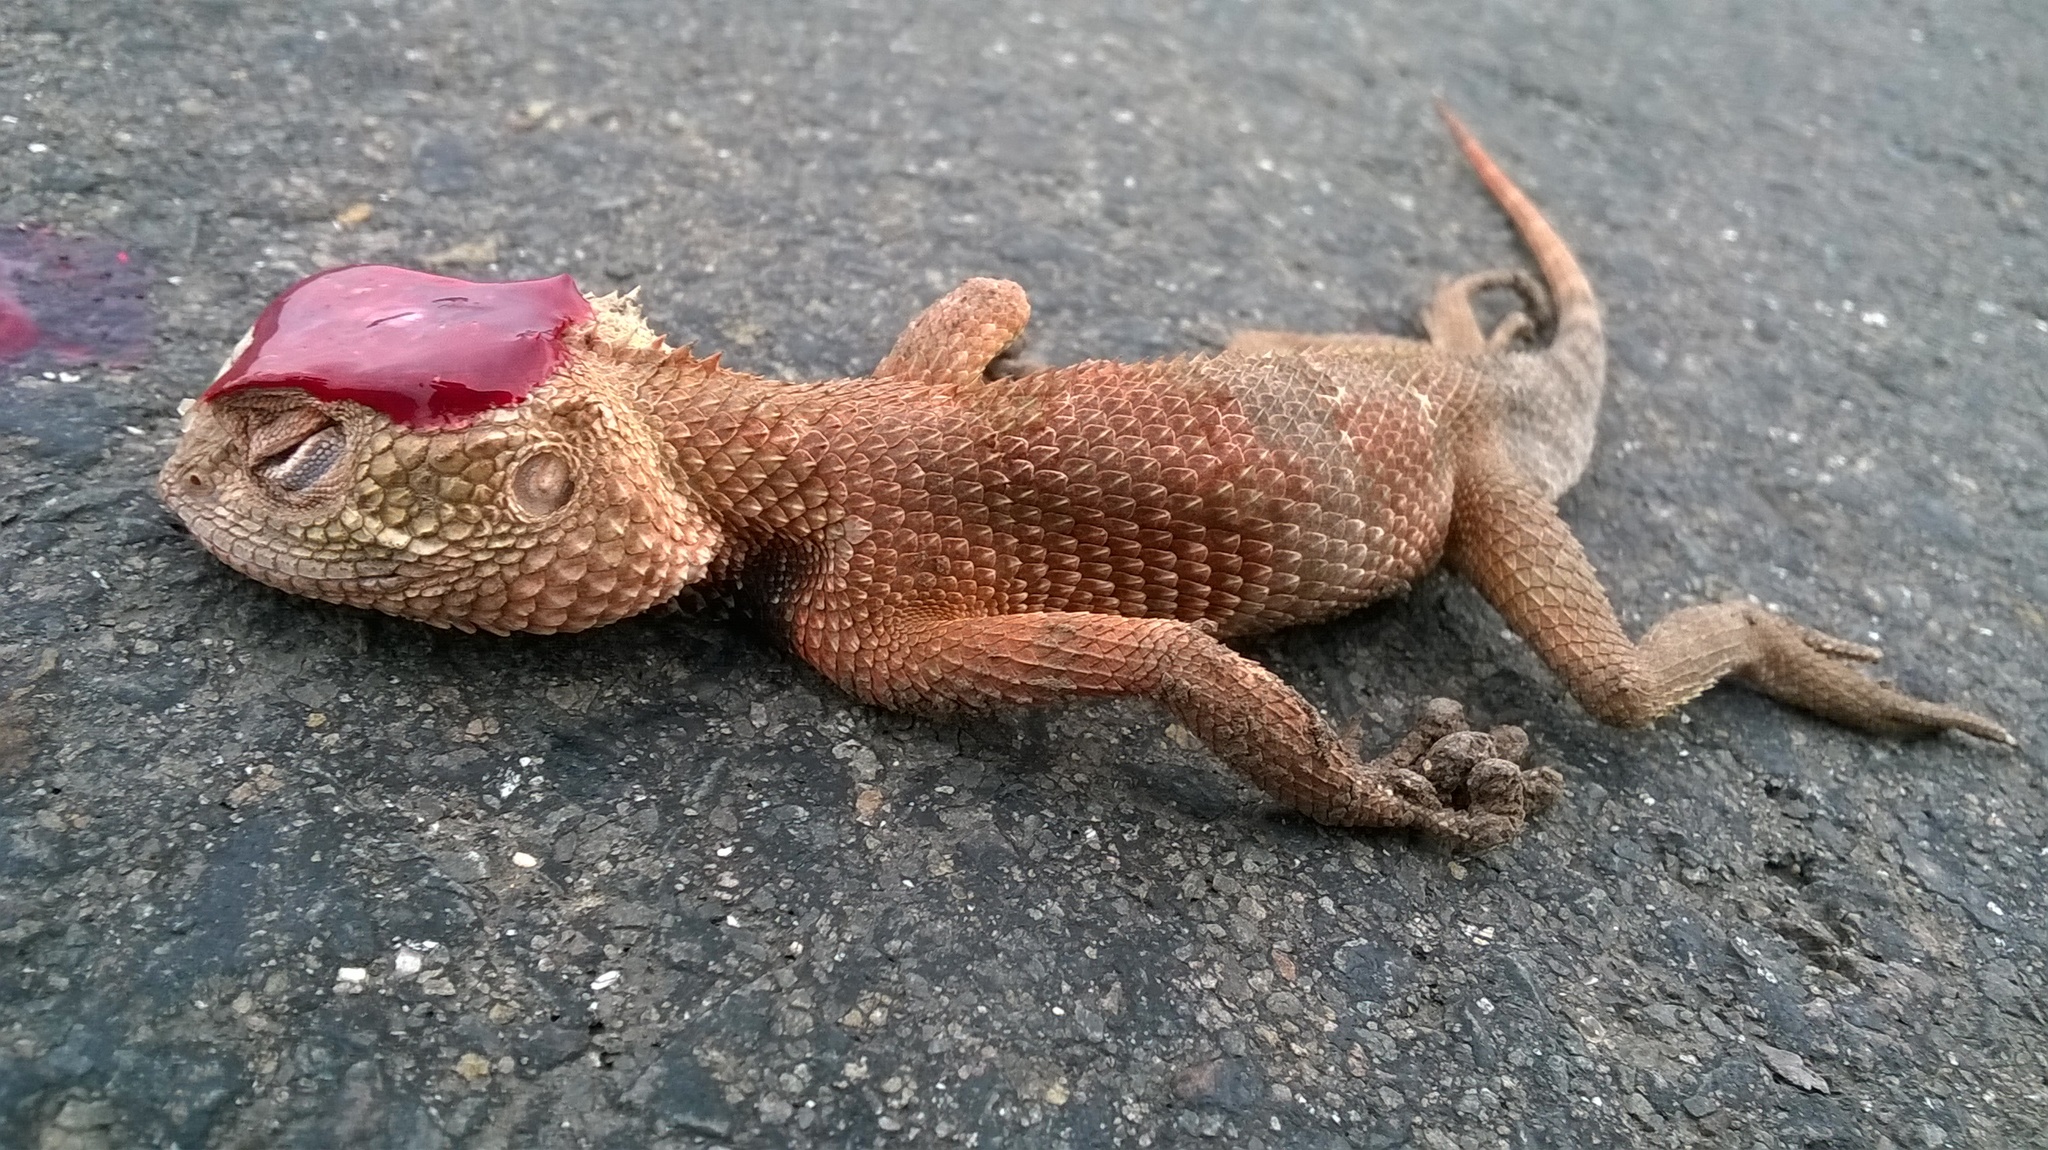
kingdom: Animalia
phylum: Chordata
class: Squamata
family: Agamidae
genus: Calotes
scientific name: Calotes versicolor
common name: Oriental garden lizard
